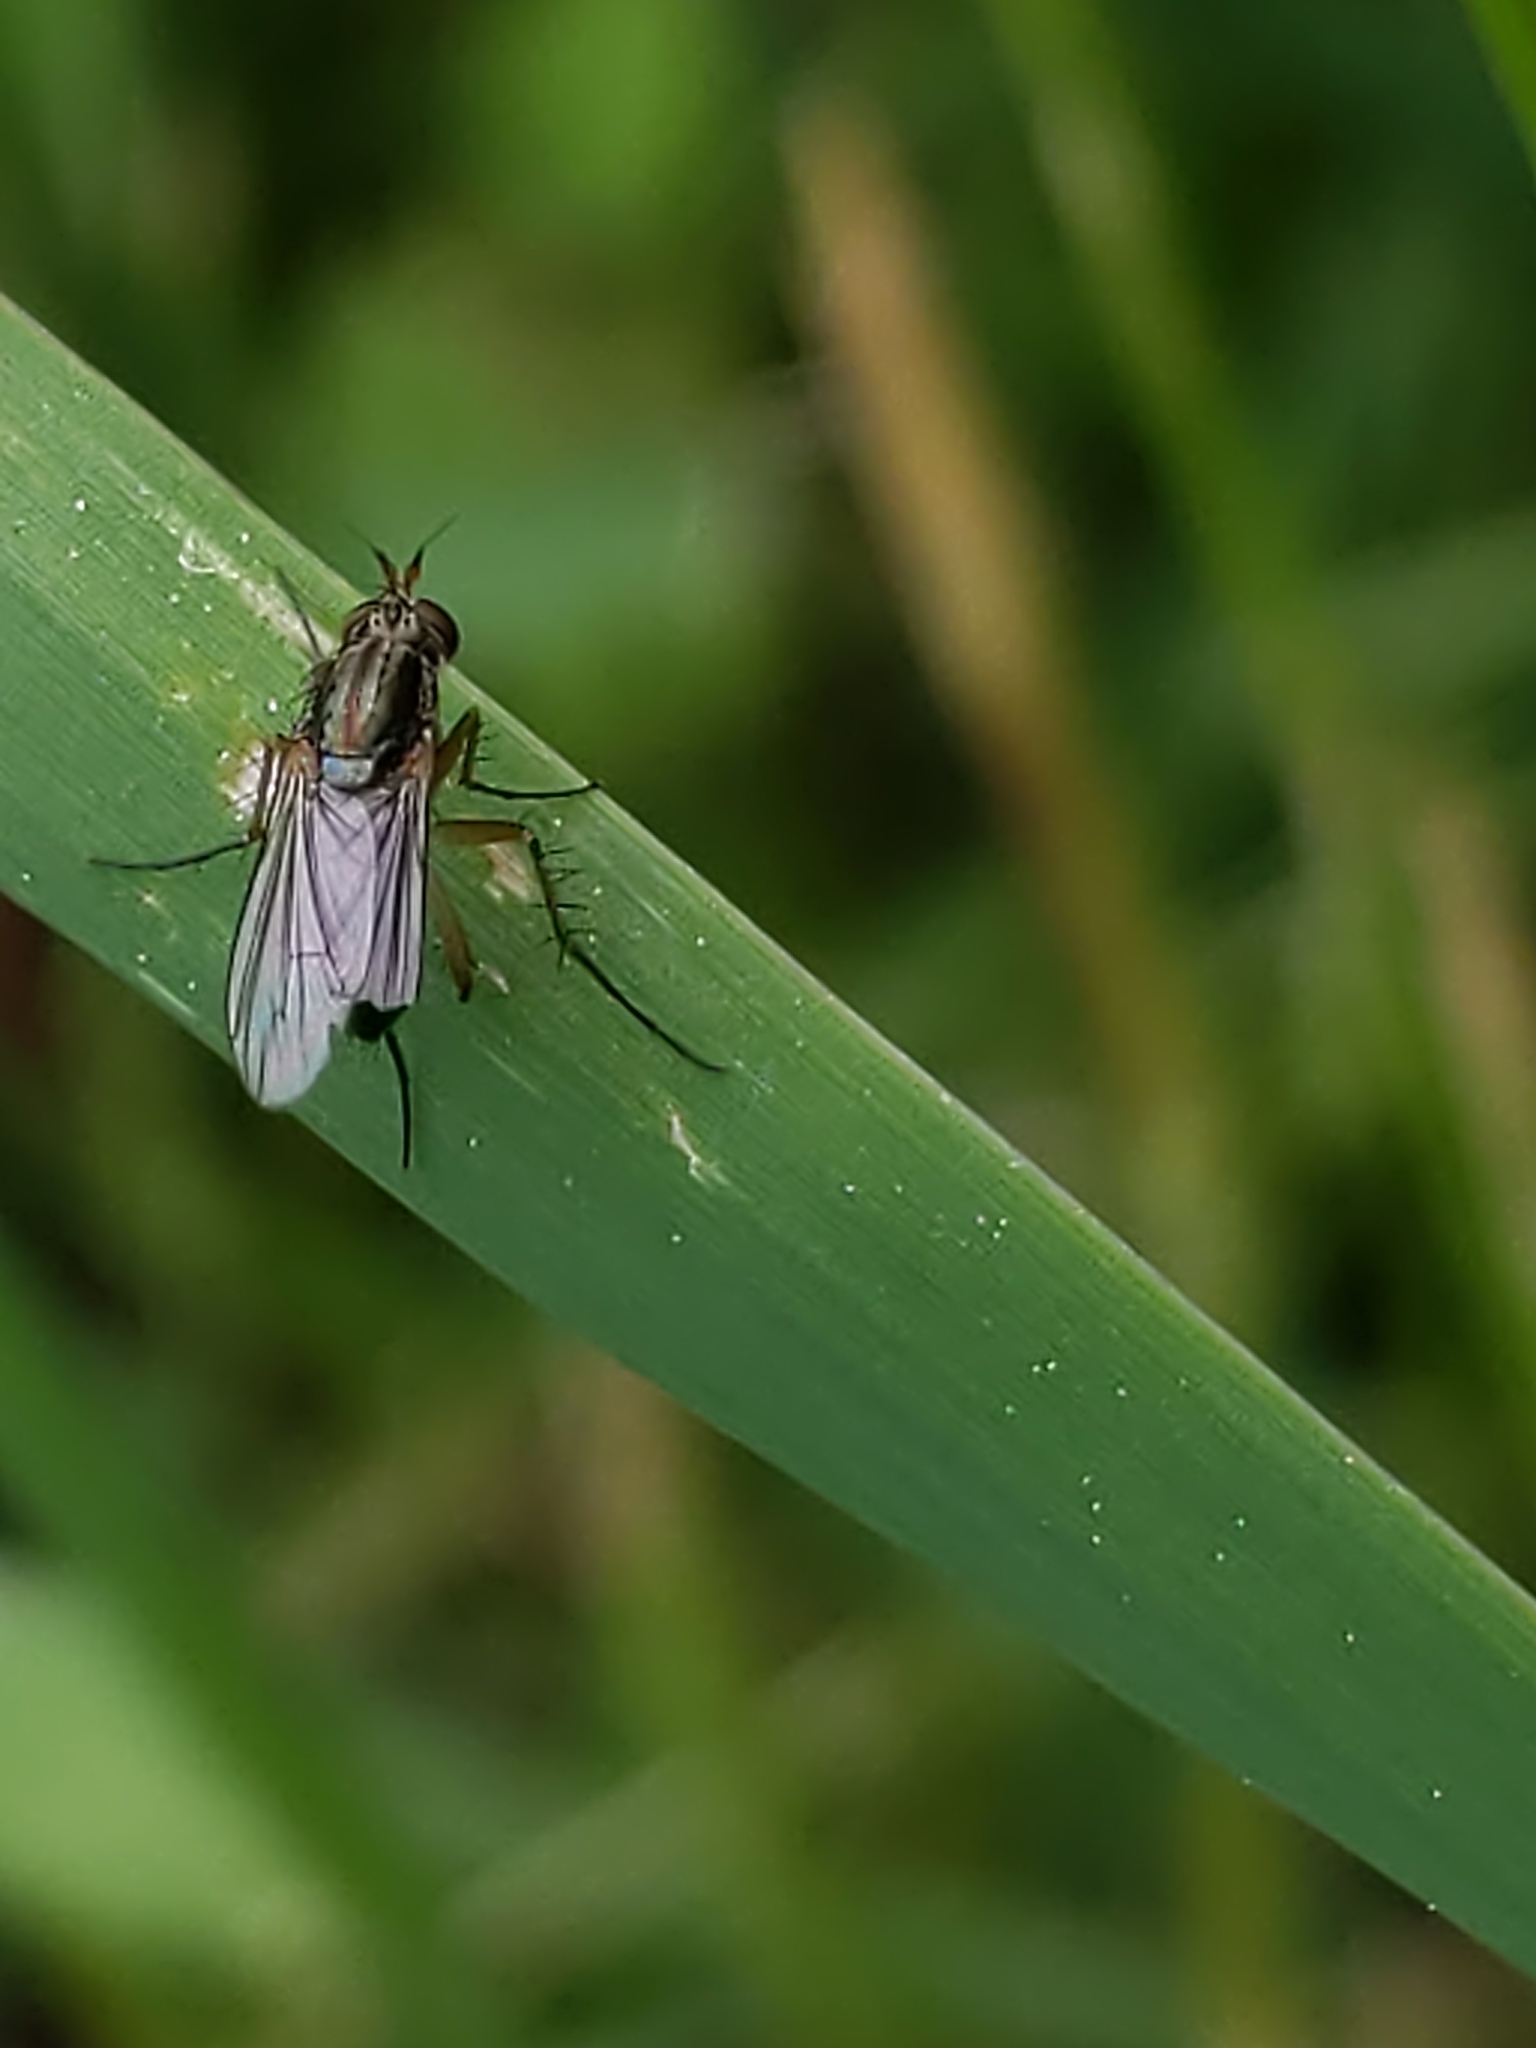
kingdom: Animalia
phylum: Arthropoda
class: Insecta
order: Diptera
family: Dolichopodidae
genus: Dolichopus
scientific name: Dolichopus
